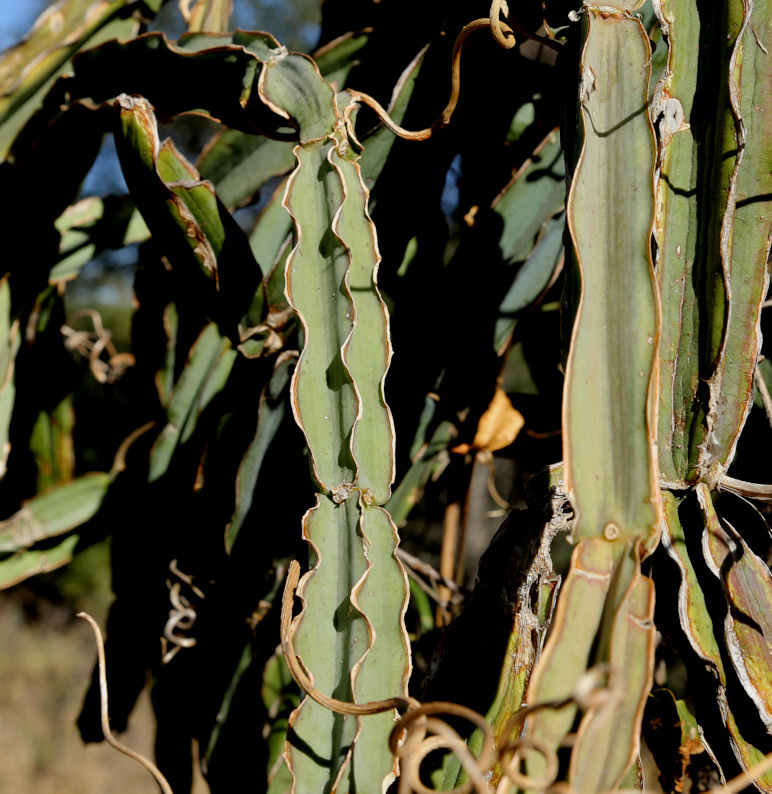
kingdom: Plantae
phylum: Tracheophyta
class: Magnoliopsida
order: Vitales
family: Vitaceae
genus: Cissus
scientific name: Cissus quadrangularis
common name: Veldt-grape
